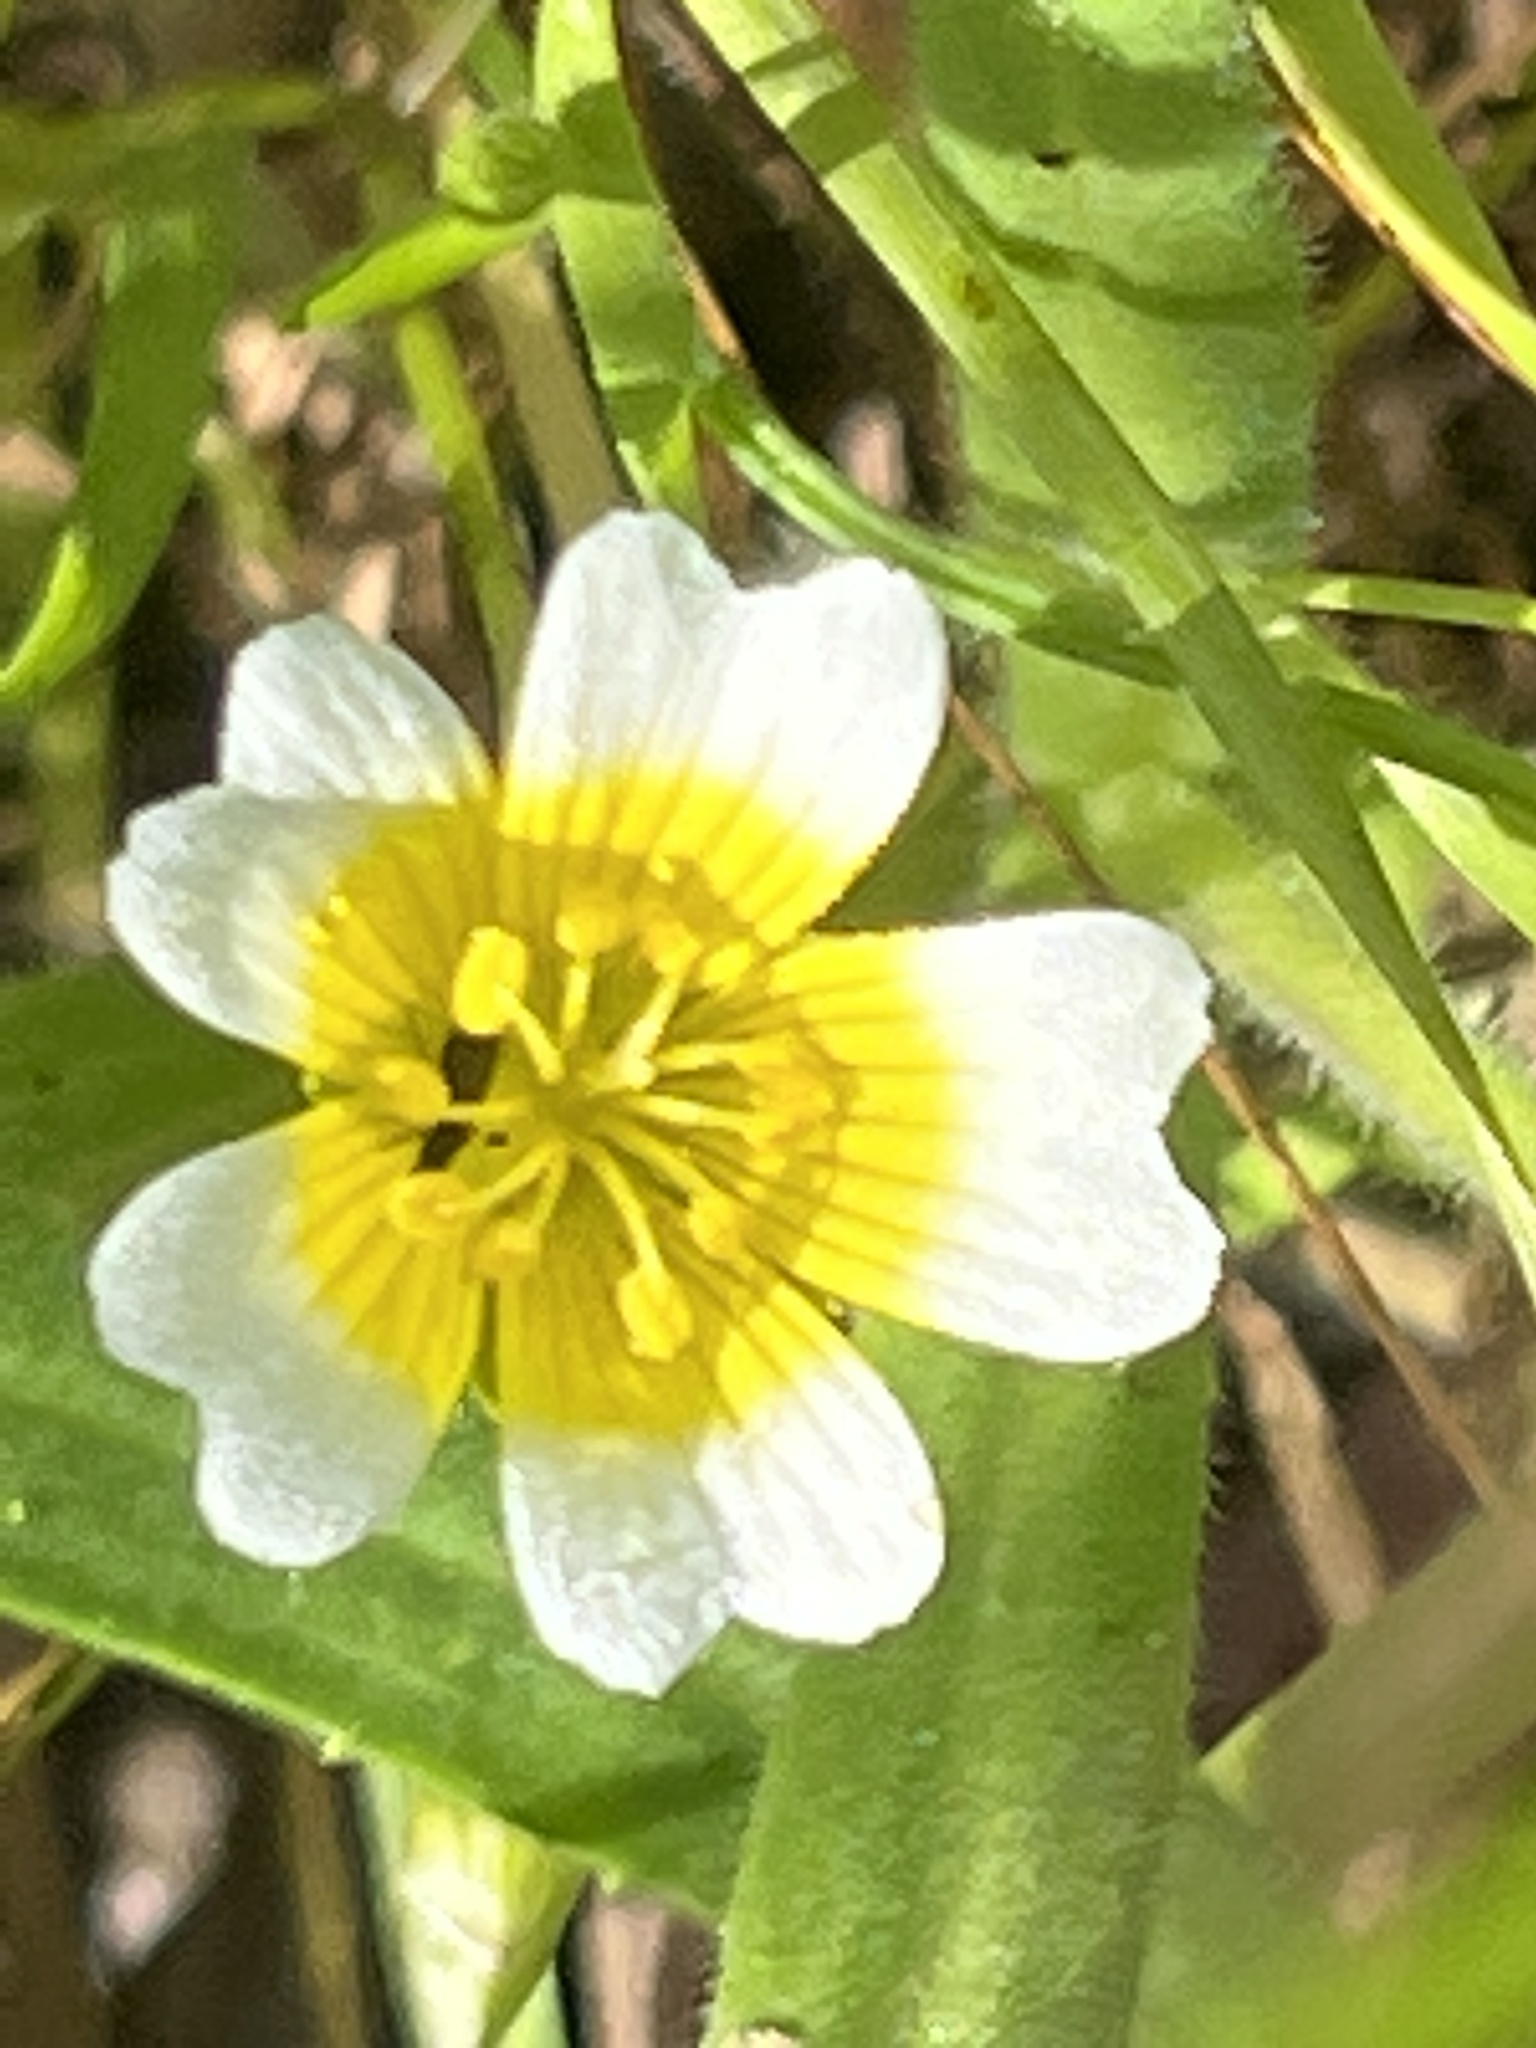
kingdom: Plantae
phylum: Tracheophyta
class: Magnoliopsida
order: Brassicales
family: Limnanthaceae
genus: Limnanthes
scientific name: Limnanthes douglasii
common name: Meadow-foam
